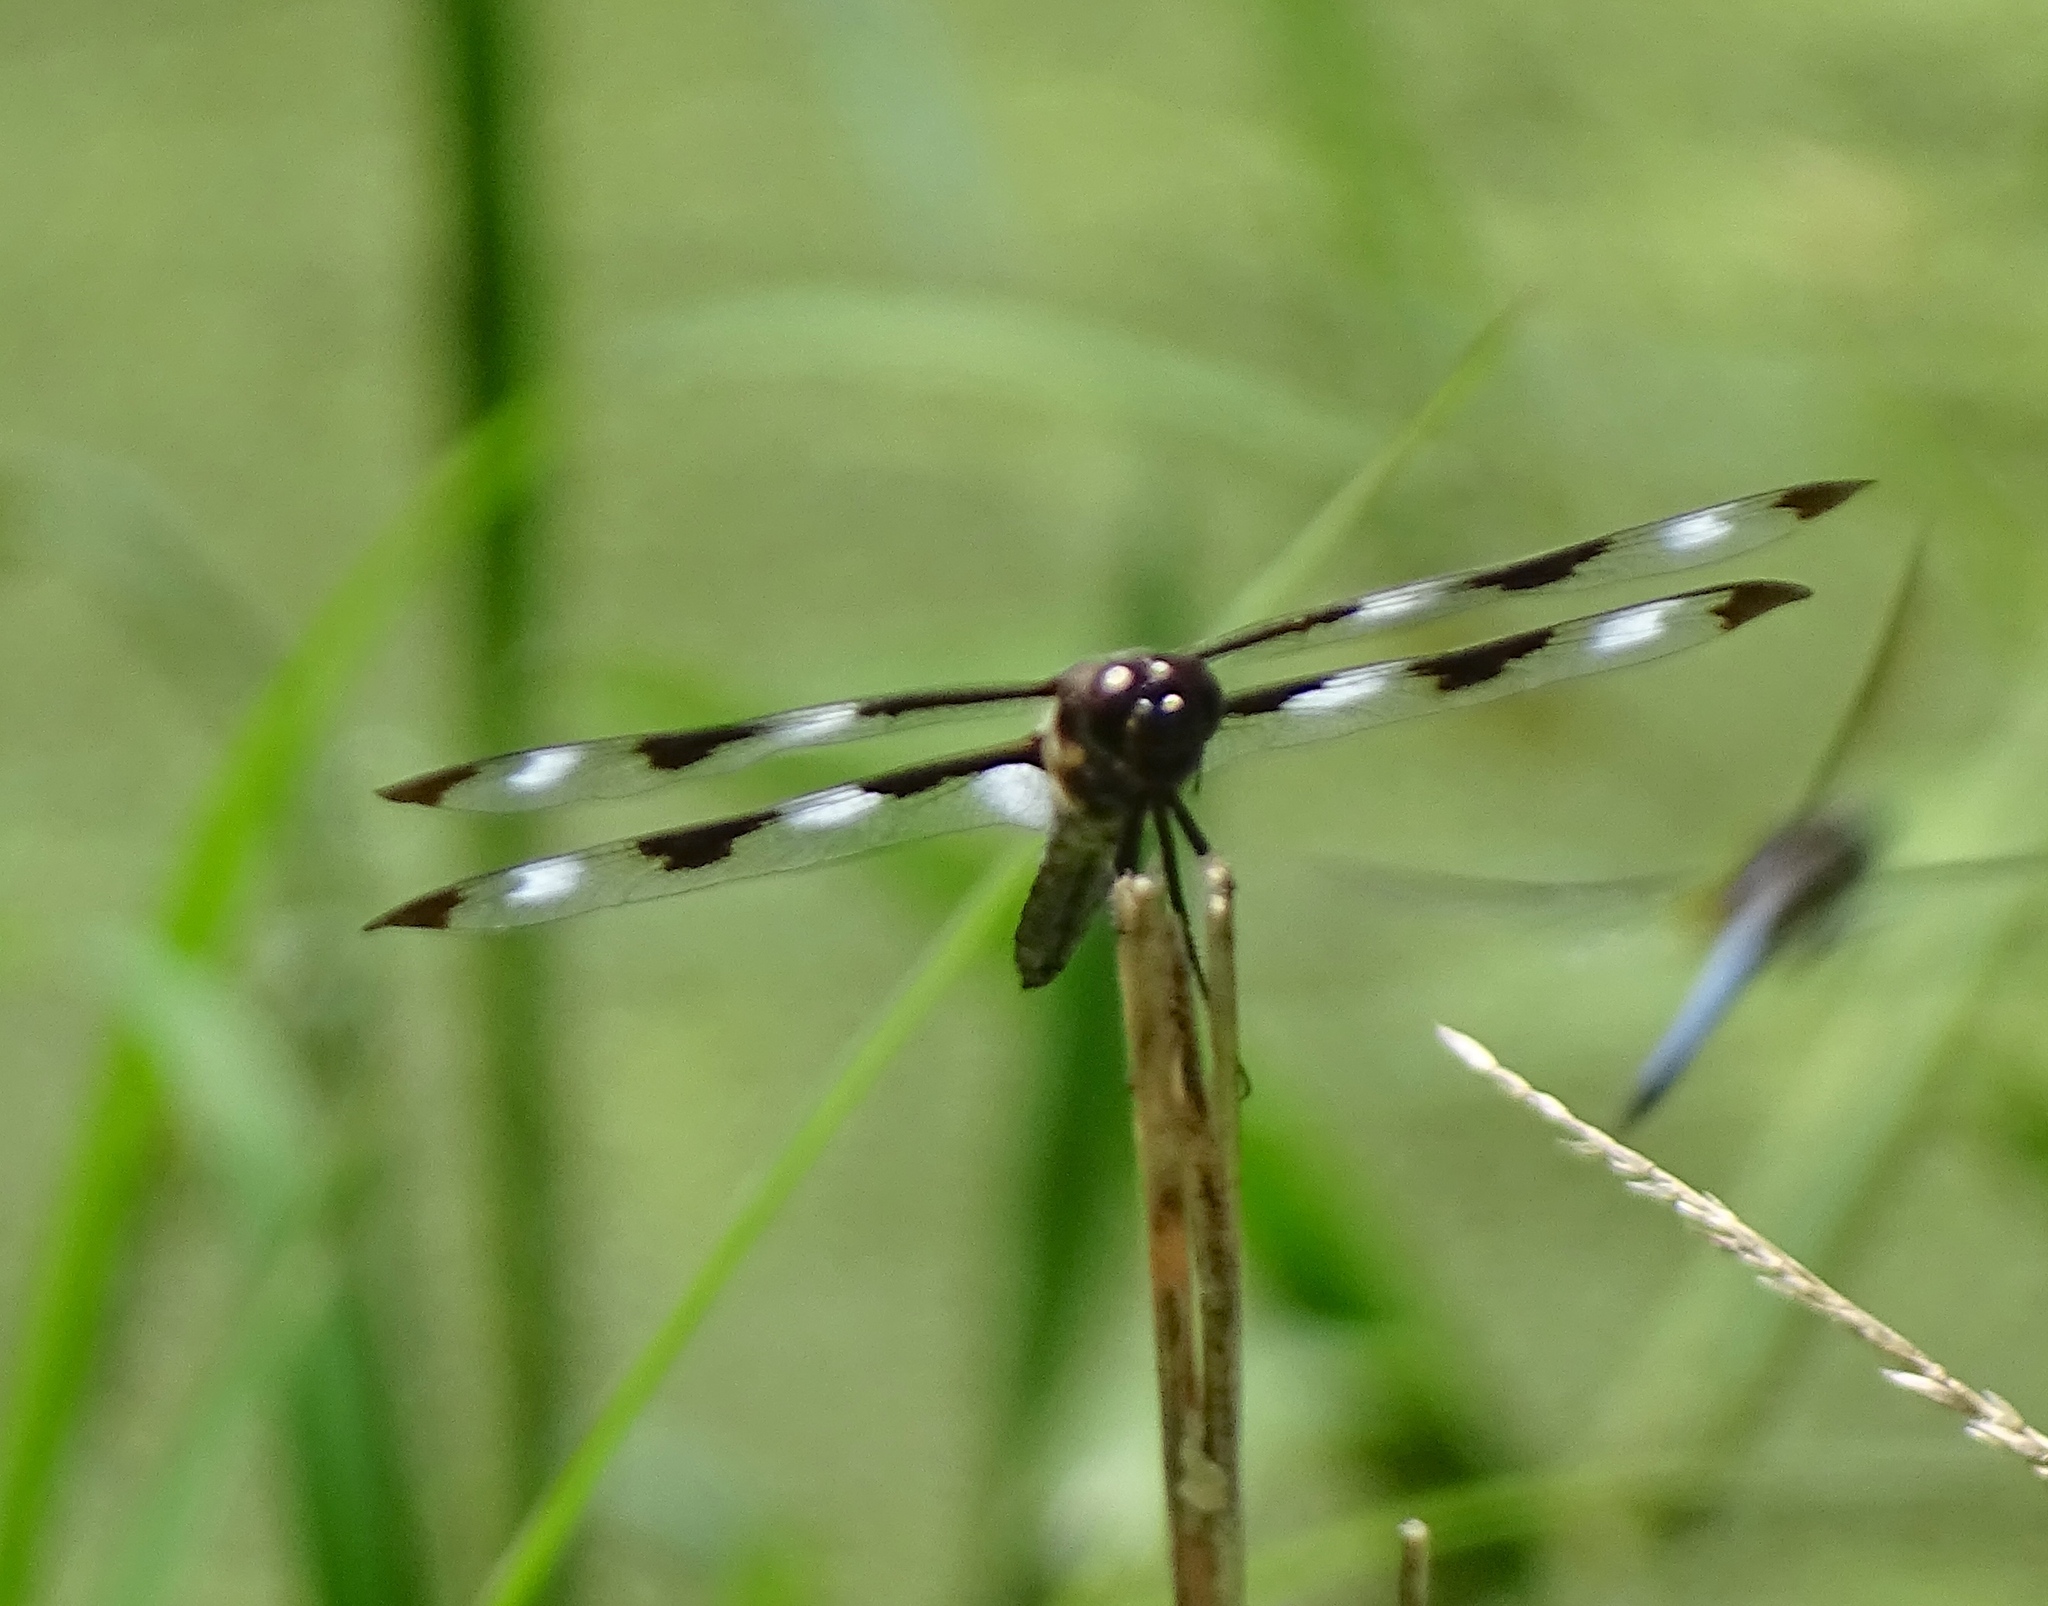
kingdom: Animalia
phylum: Arthropoda
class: Insecta
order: Odonata
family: Libellulidae
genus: Libellula
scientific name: Libellula pulchella
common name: Twelve-spotted skimmer
